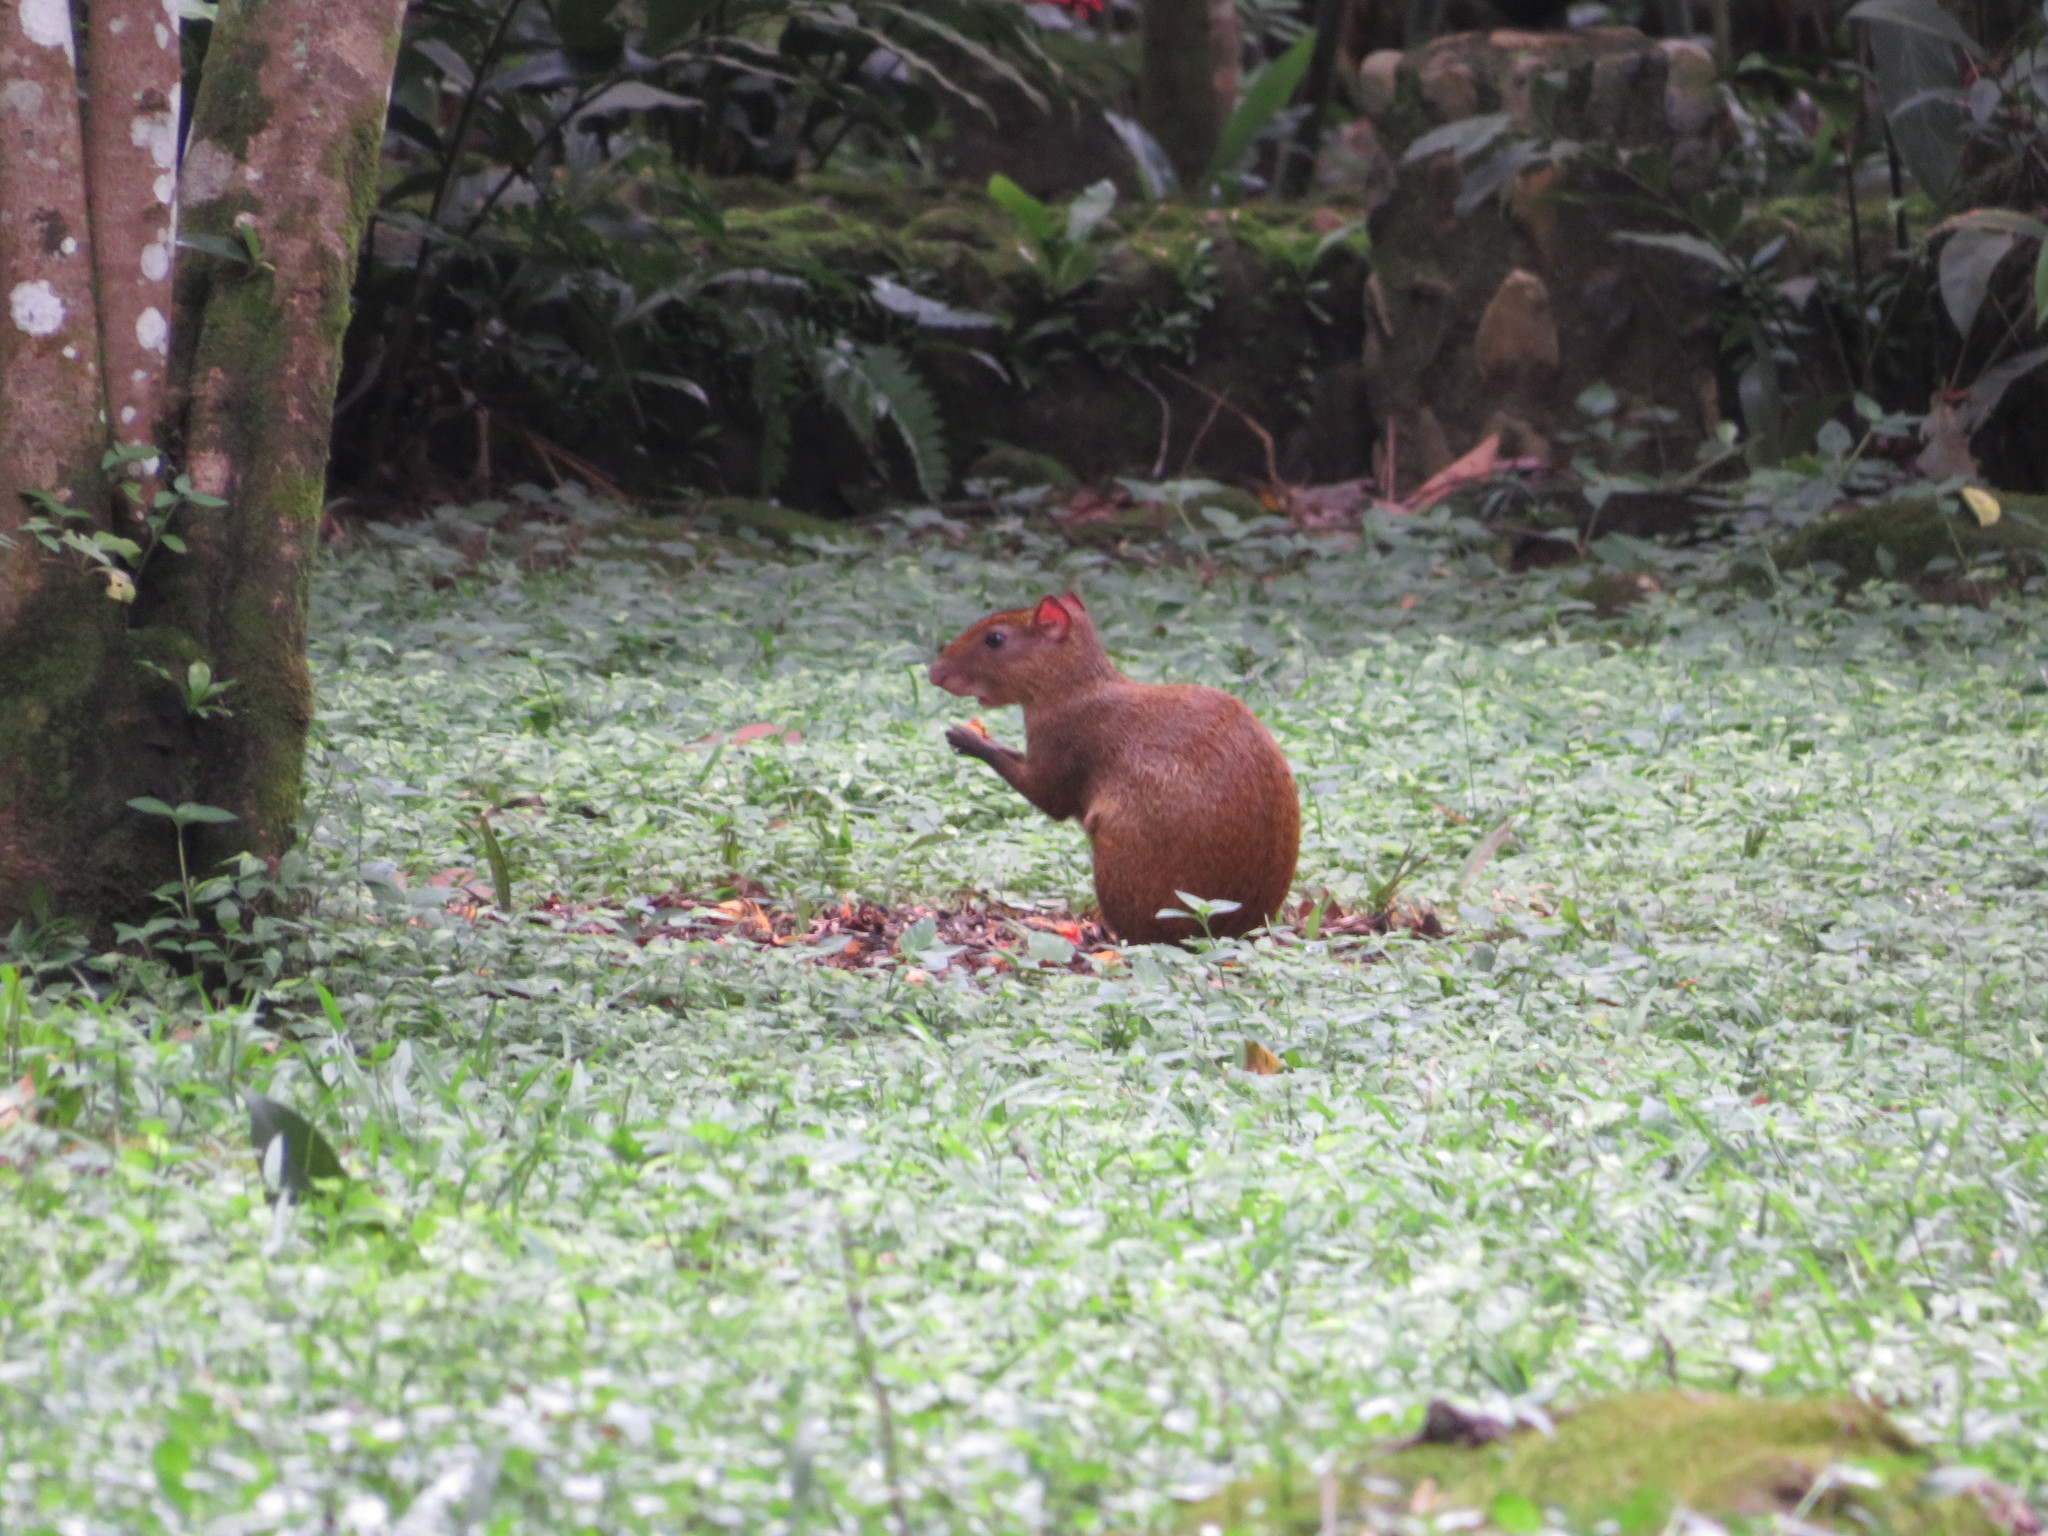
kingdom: Animalia
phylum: Chordata
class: Mammalia
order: Rodentia
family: Dasyproctidae
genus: Dasyprocta
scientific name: Dasyprocta punctata
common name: Central american agouti
